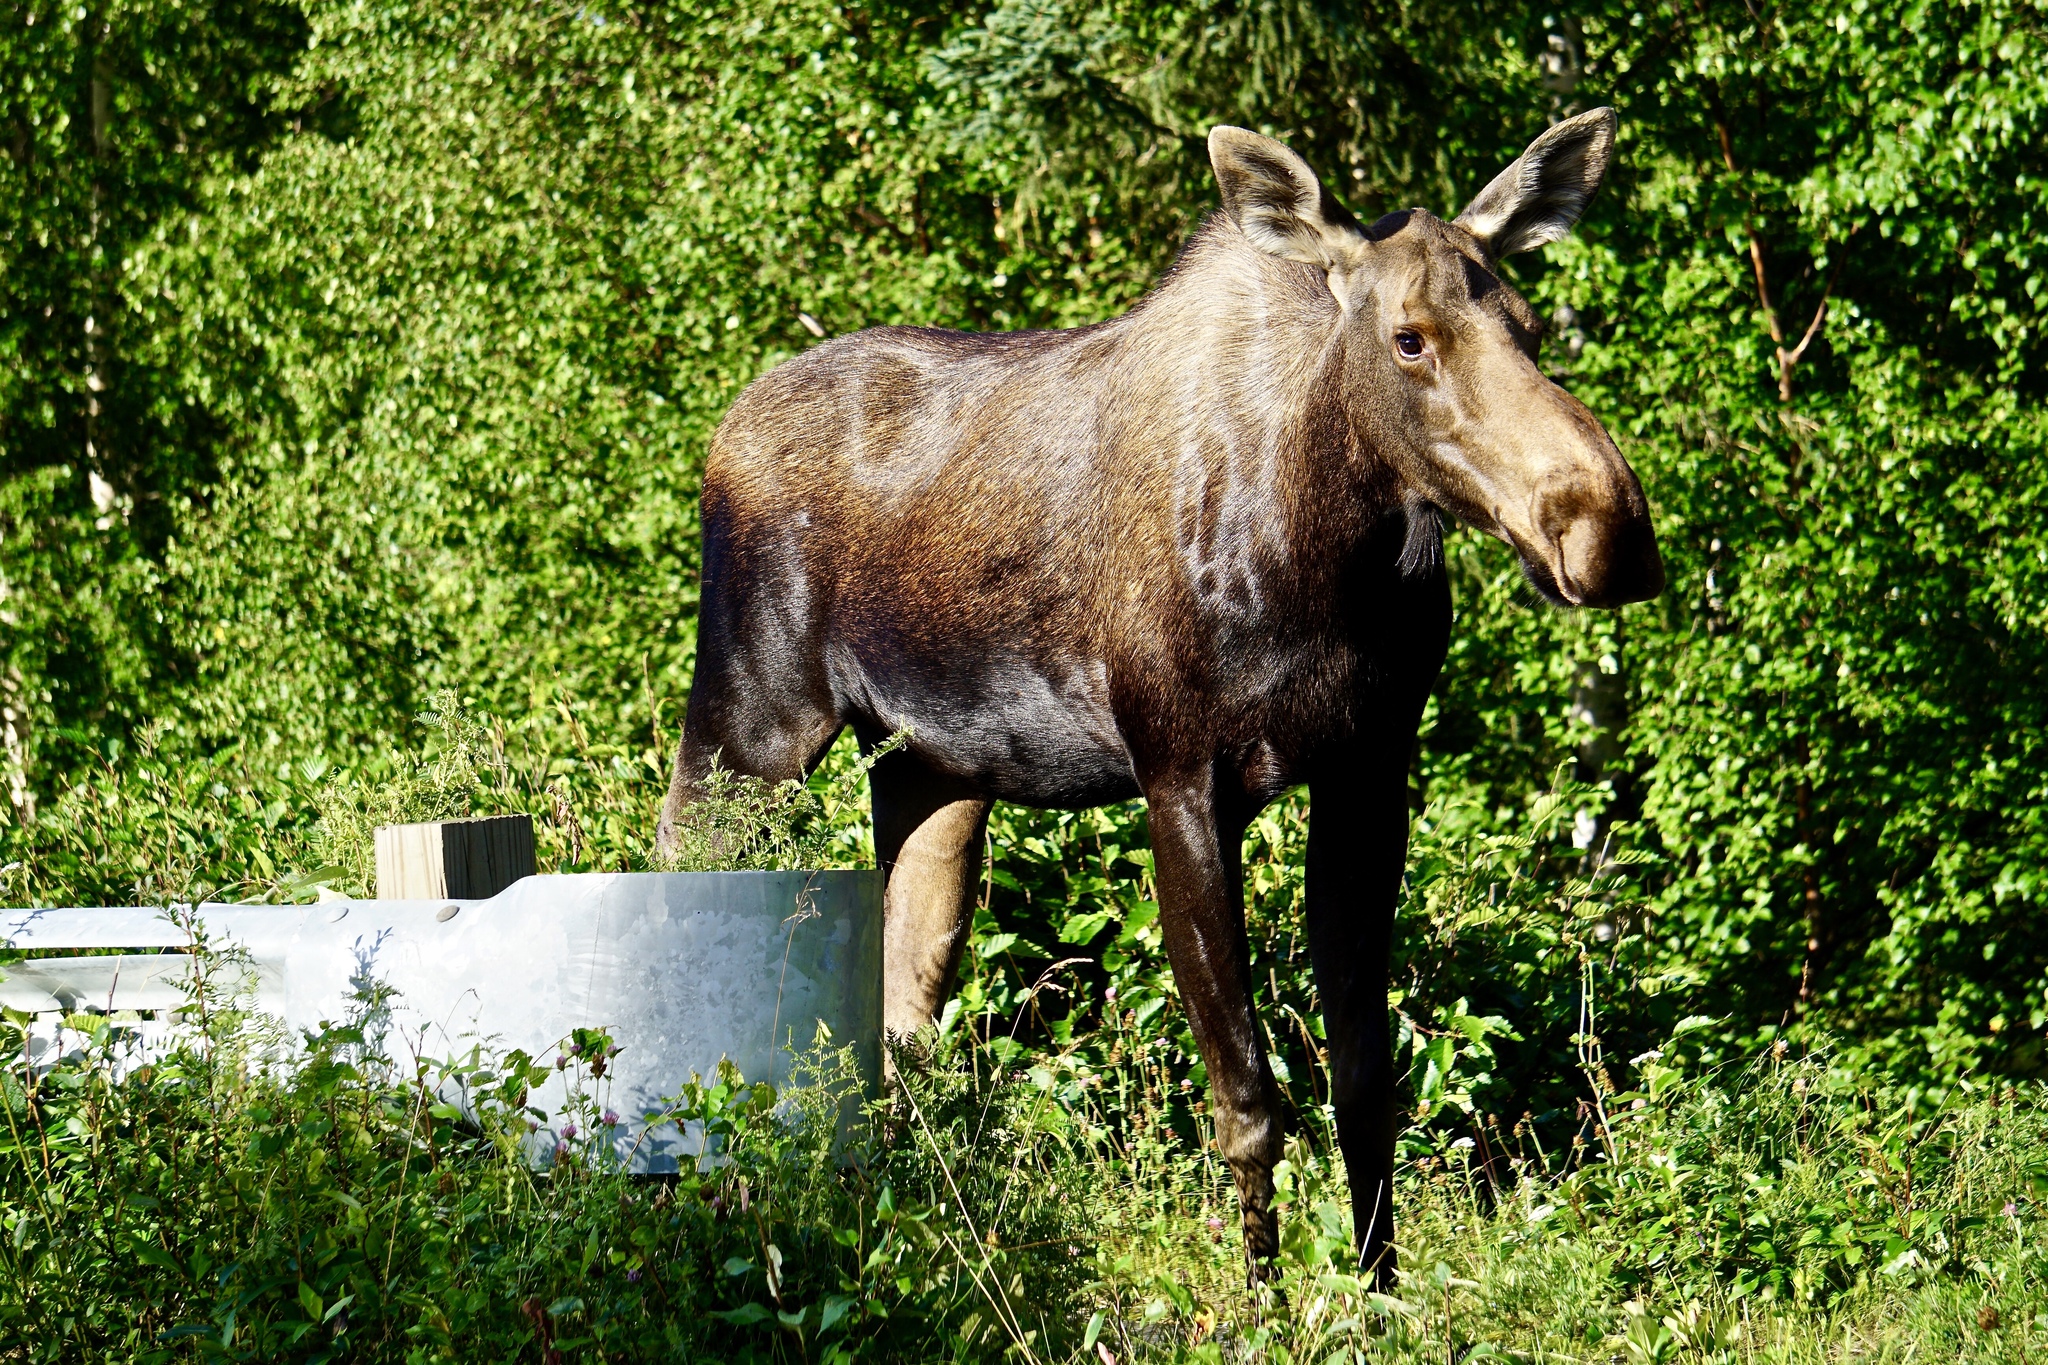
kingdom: Animalia
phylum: Chordata
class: Mammalia
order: Artiodactyla
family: Cervidae
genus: Alces
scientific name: Alces alces
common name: Moose
